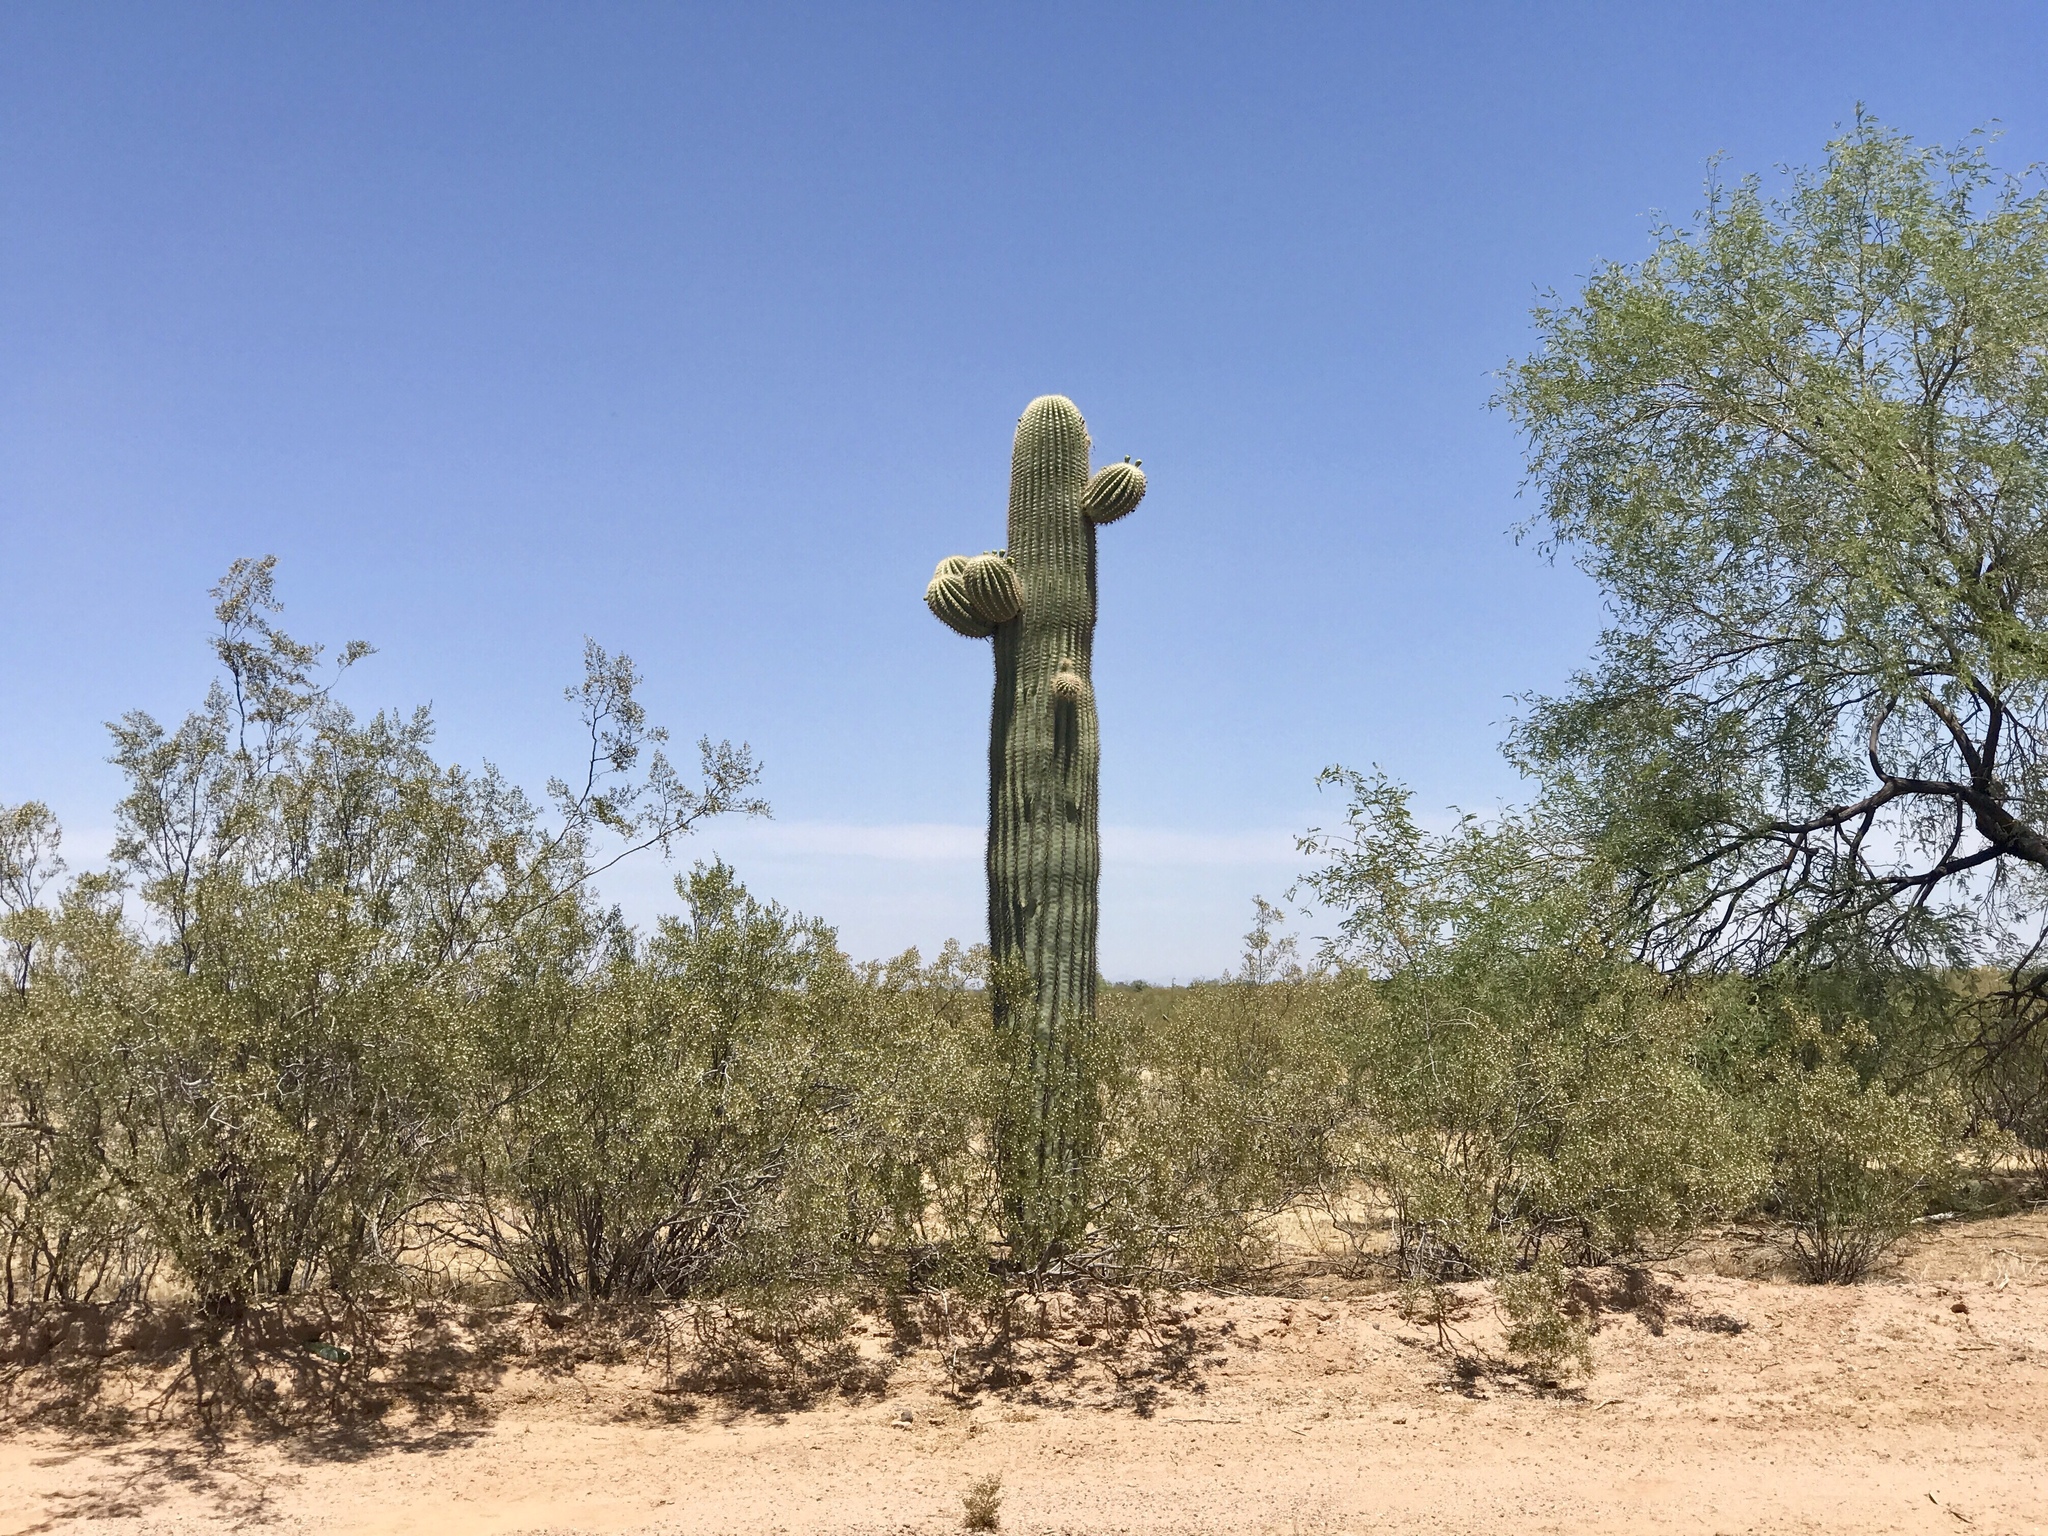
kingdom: Plantae
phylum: Tracheophyta
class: Magnoliopsida
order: Caryophyllales
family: Cactaceae
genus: Carnegiea
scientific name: Carnegiea gigantea
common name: Saguaro
